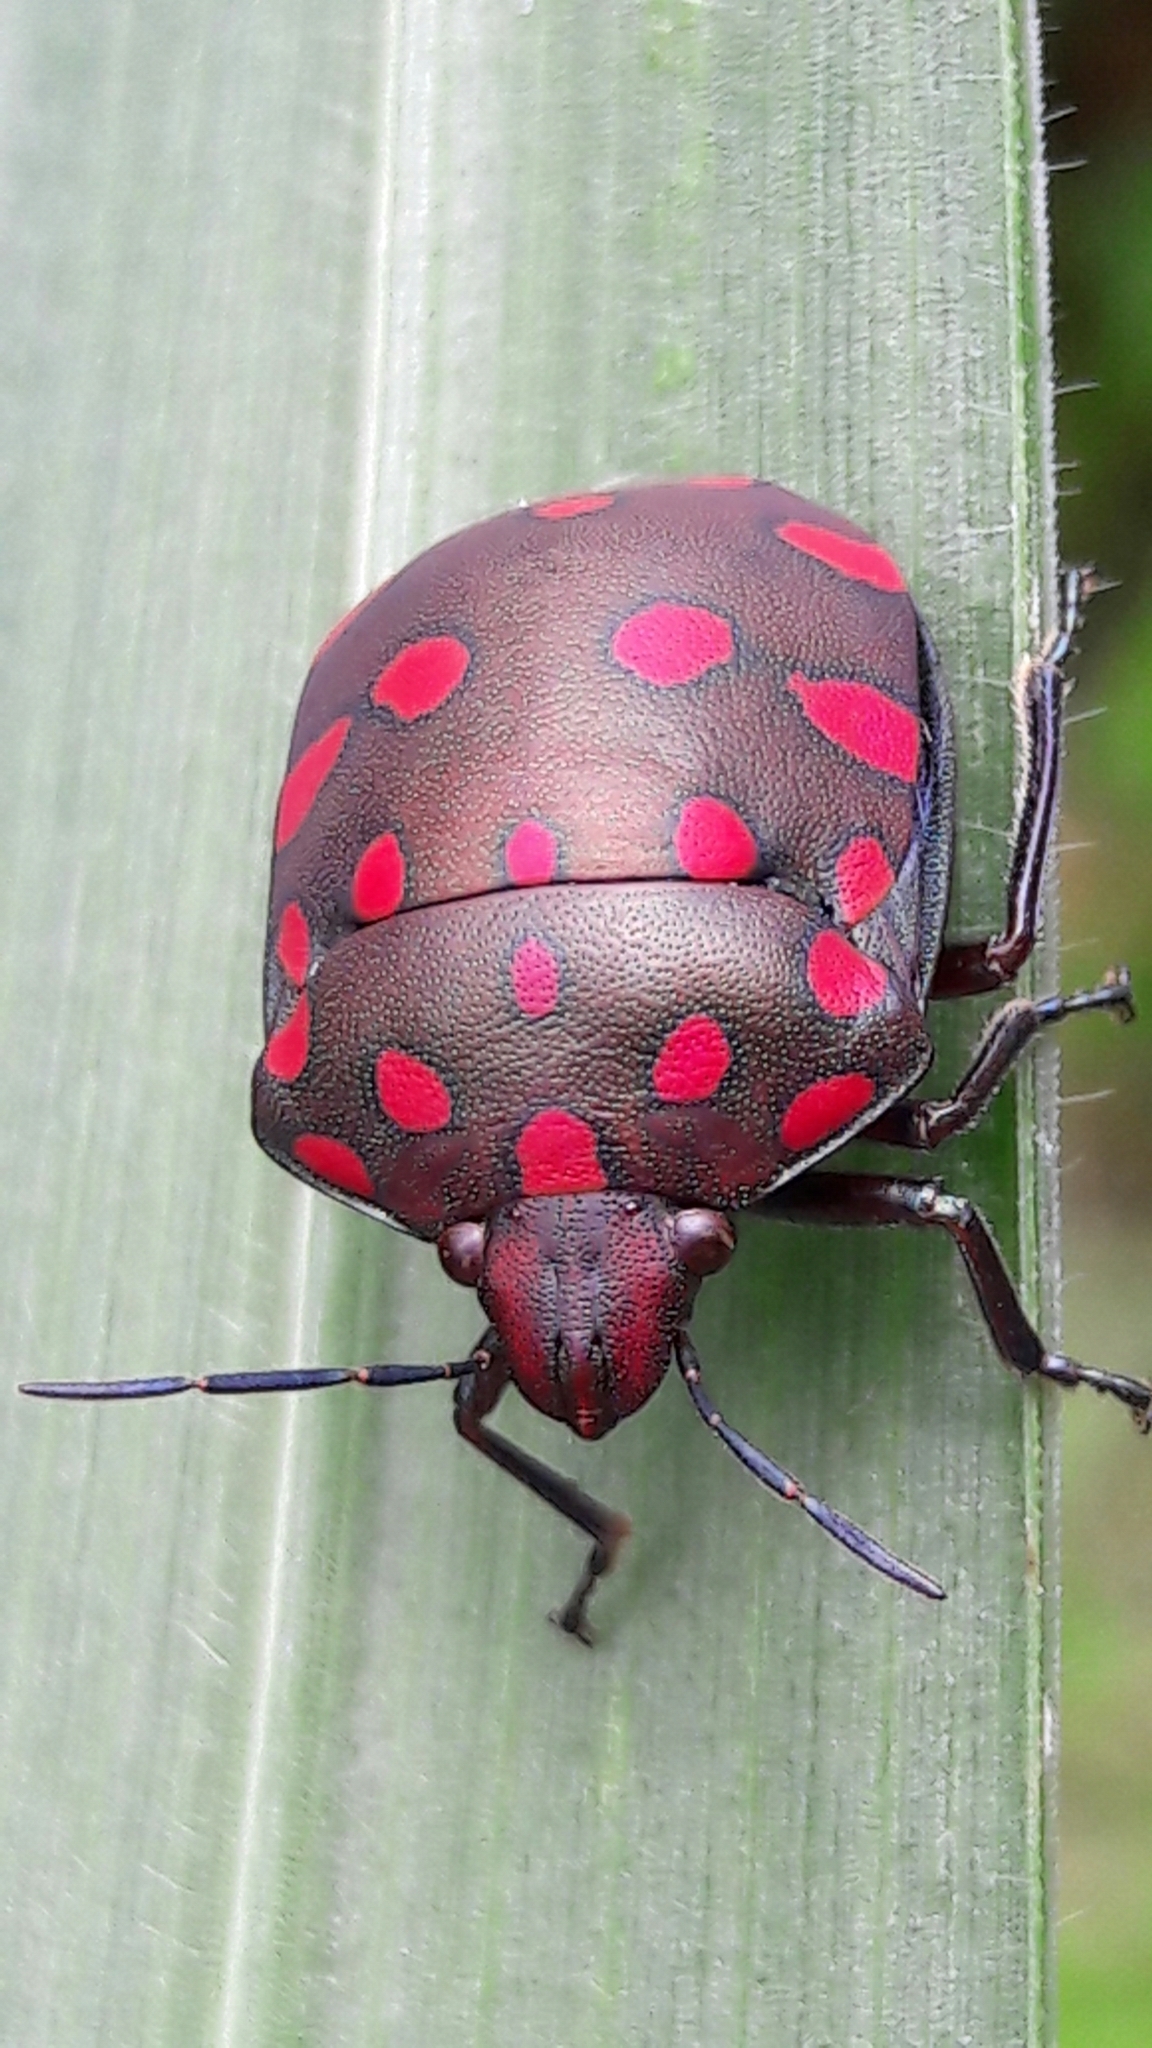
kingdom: Animalia
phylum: Arthropoda
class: Insecta
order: Hemiptera
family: Scutelleridae
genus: Pachycoris
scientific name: Pachycoris torridus
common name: Torrid jewel bug
